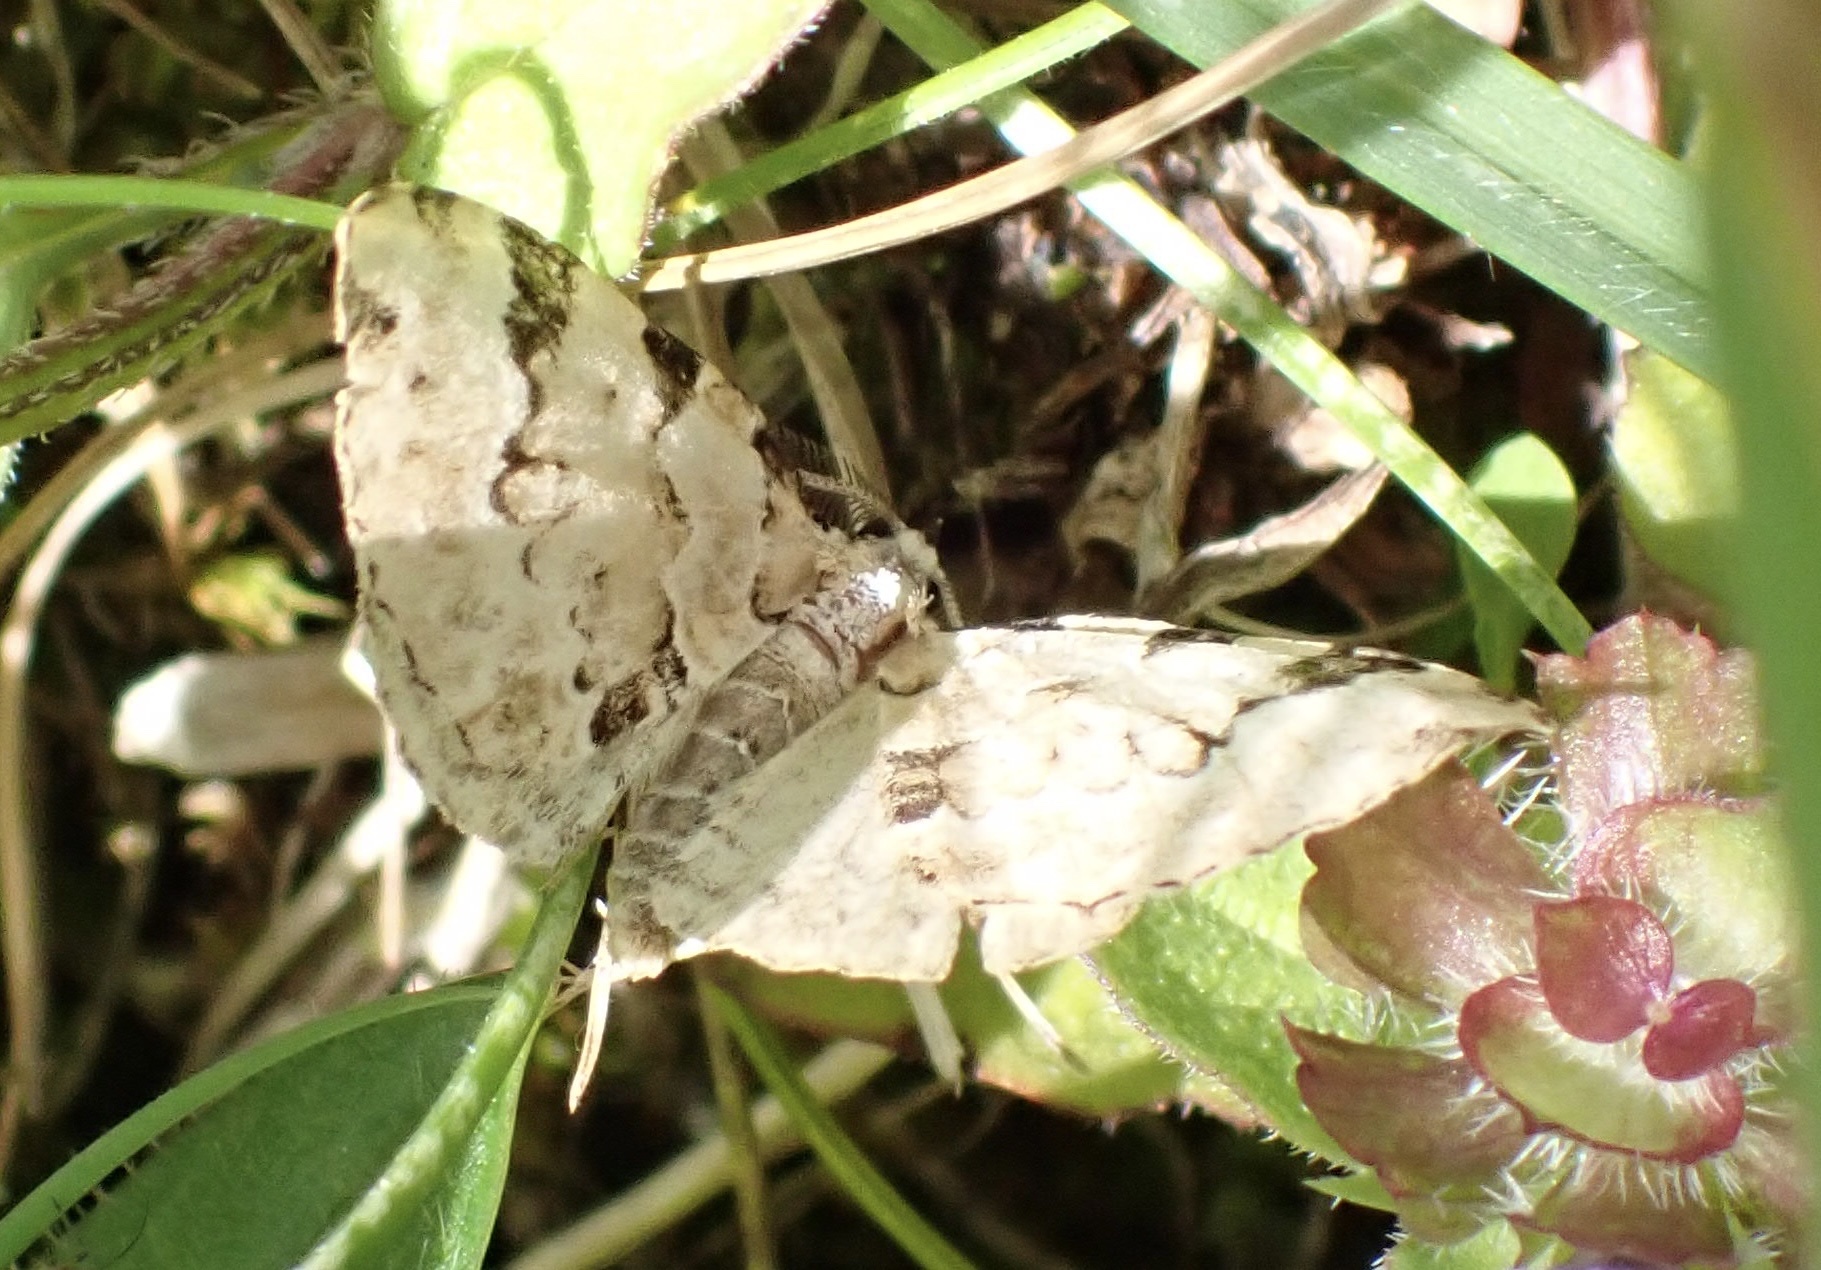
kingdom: Animalia
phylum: Arthropoda
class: Insecta
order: Lepidoptera
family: Geometridae
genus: Colostygia
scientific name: Colostygia pectinataria
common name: Green carpet
